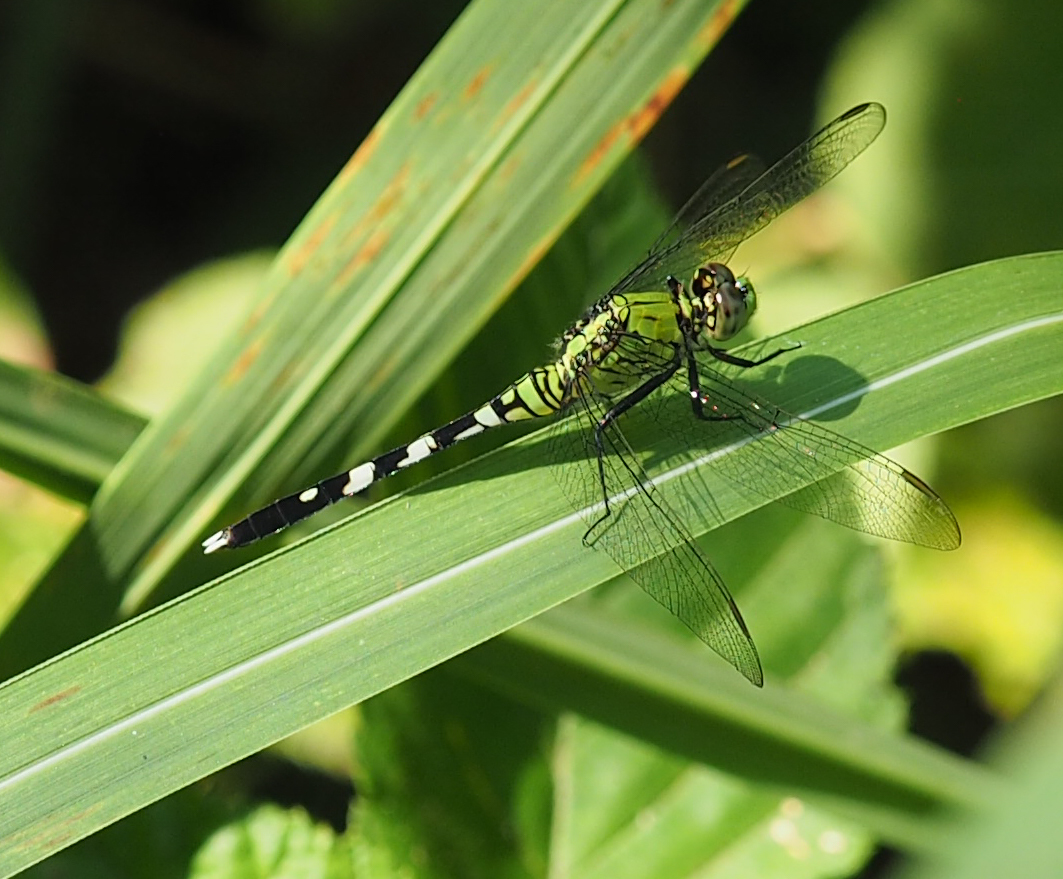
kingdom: Animalia
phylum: Arthropoda
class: Insecta
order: Odonata
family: Libellulidae
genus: Erythemis
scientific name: Erythemis simplicicollis
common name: Eastern pondhawk
